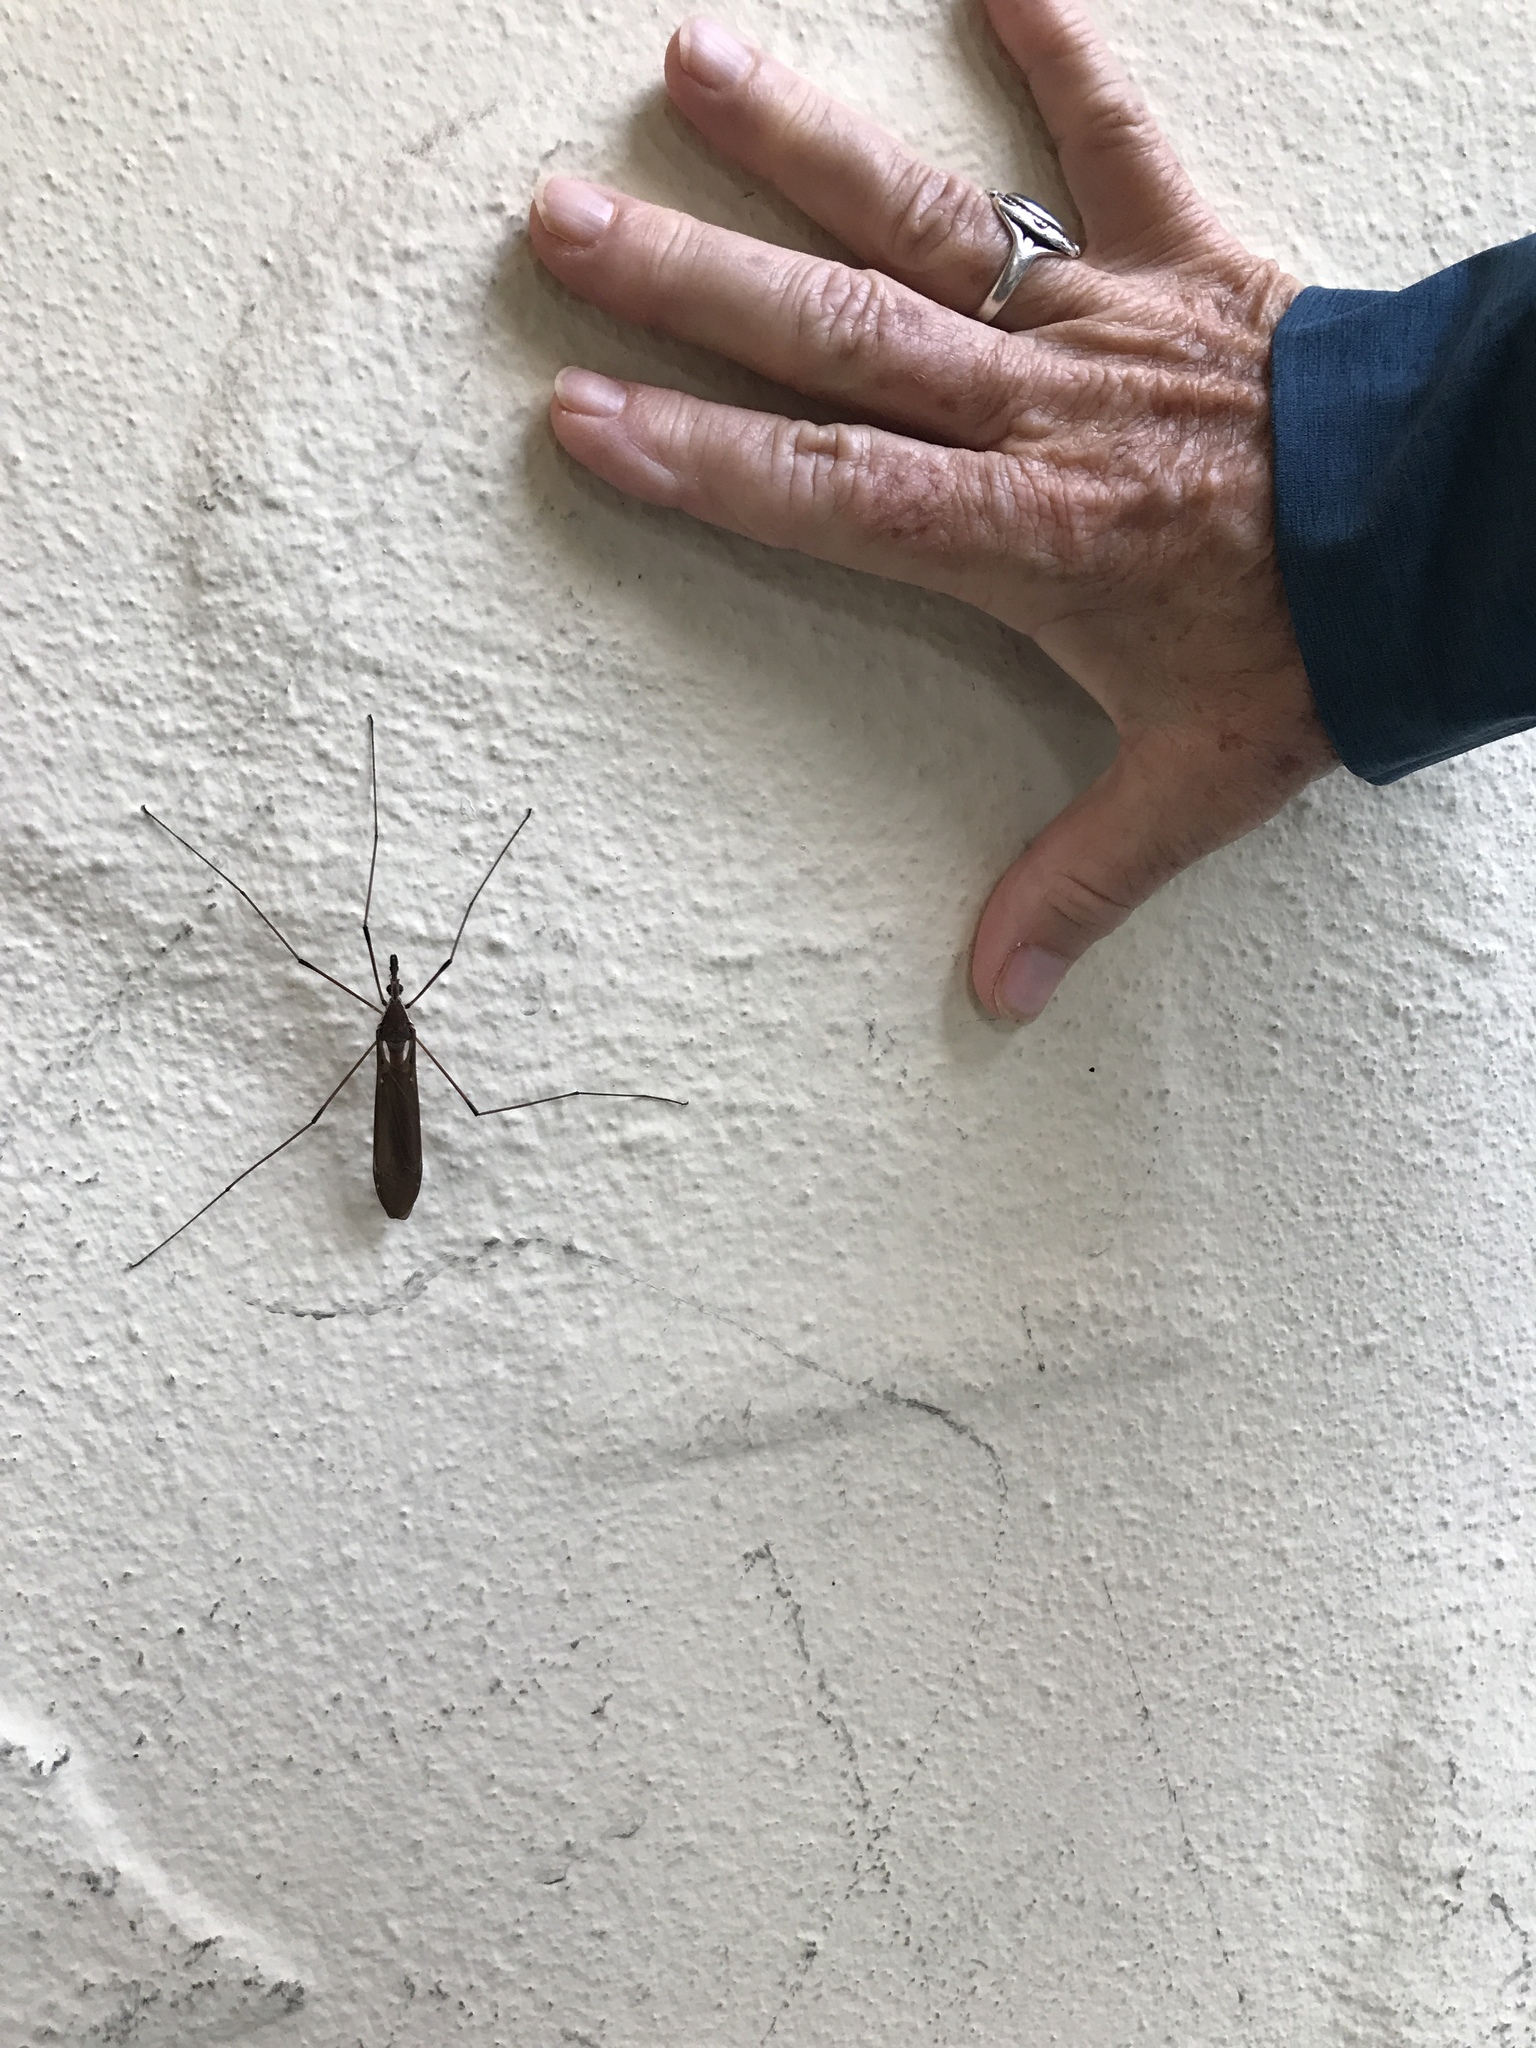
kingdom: Animalia
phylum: Arthropoda
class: Insecta
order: Diptera
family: Tipulidae
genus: Holorusia
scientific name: Holorusia hespera
